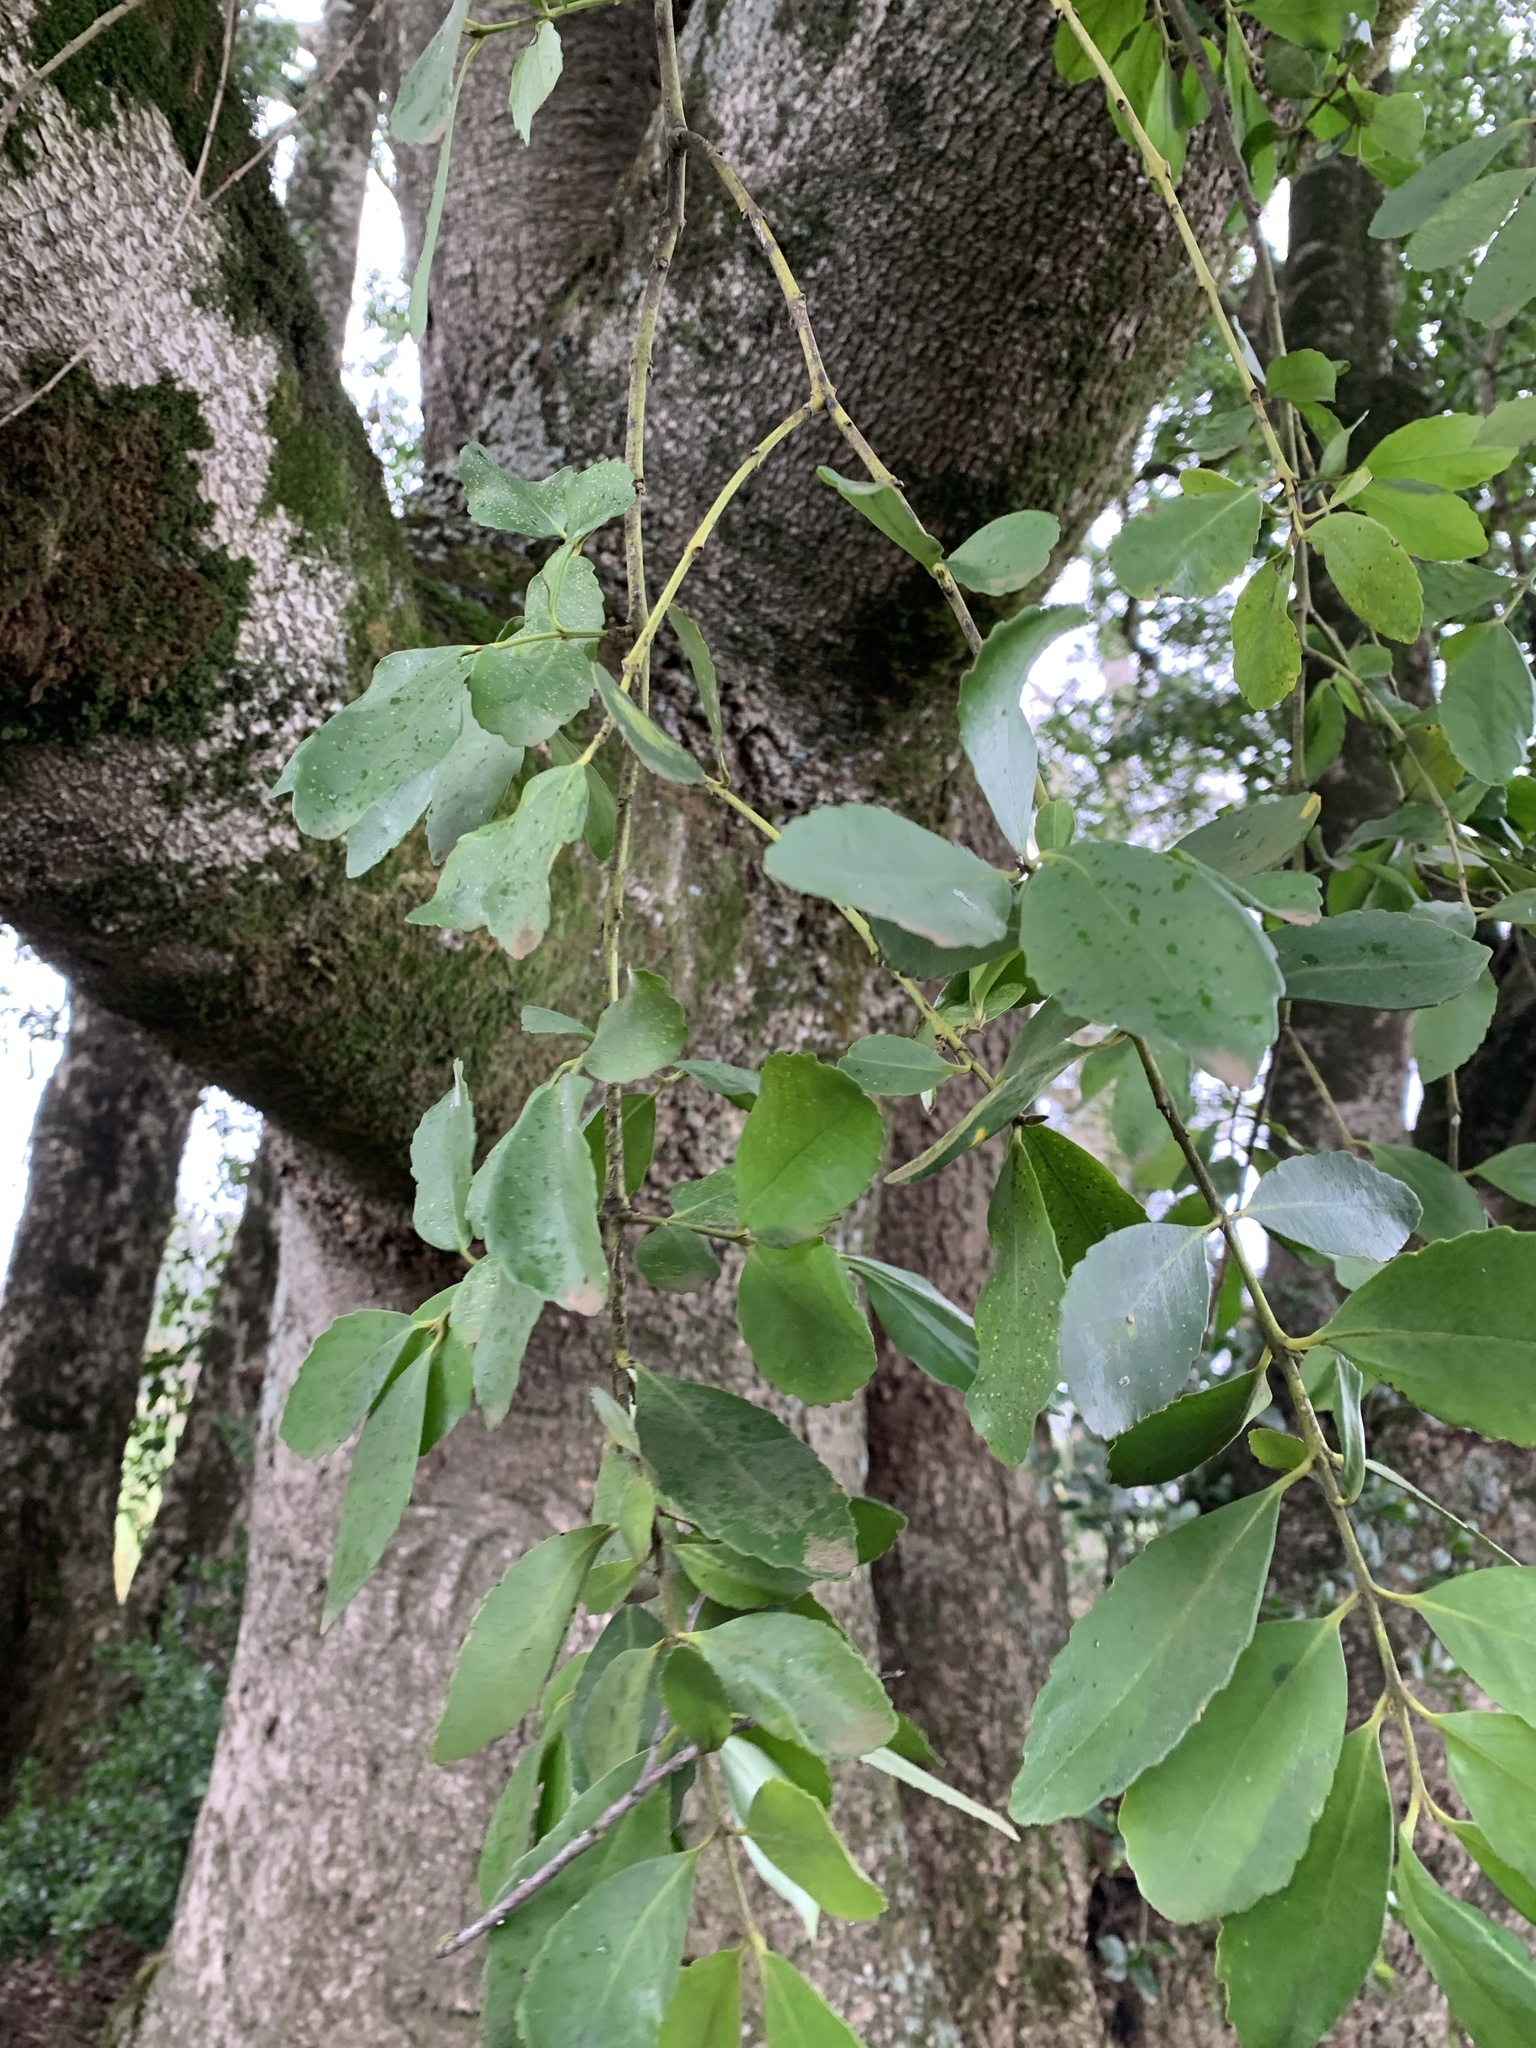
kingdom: Plantae
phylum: Tracheophyta
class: Magnoliopsida
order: Laurales
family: Atherospermataceae
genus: Laurelia
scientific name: Laurelia sempervirens
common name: Chilean laurel
